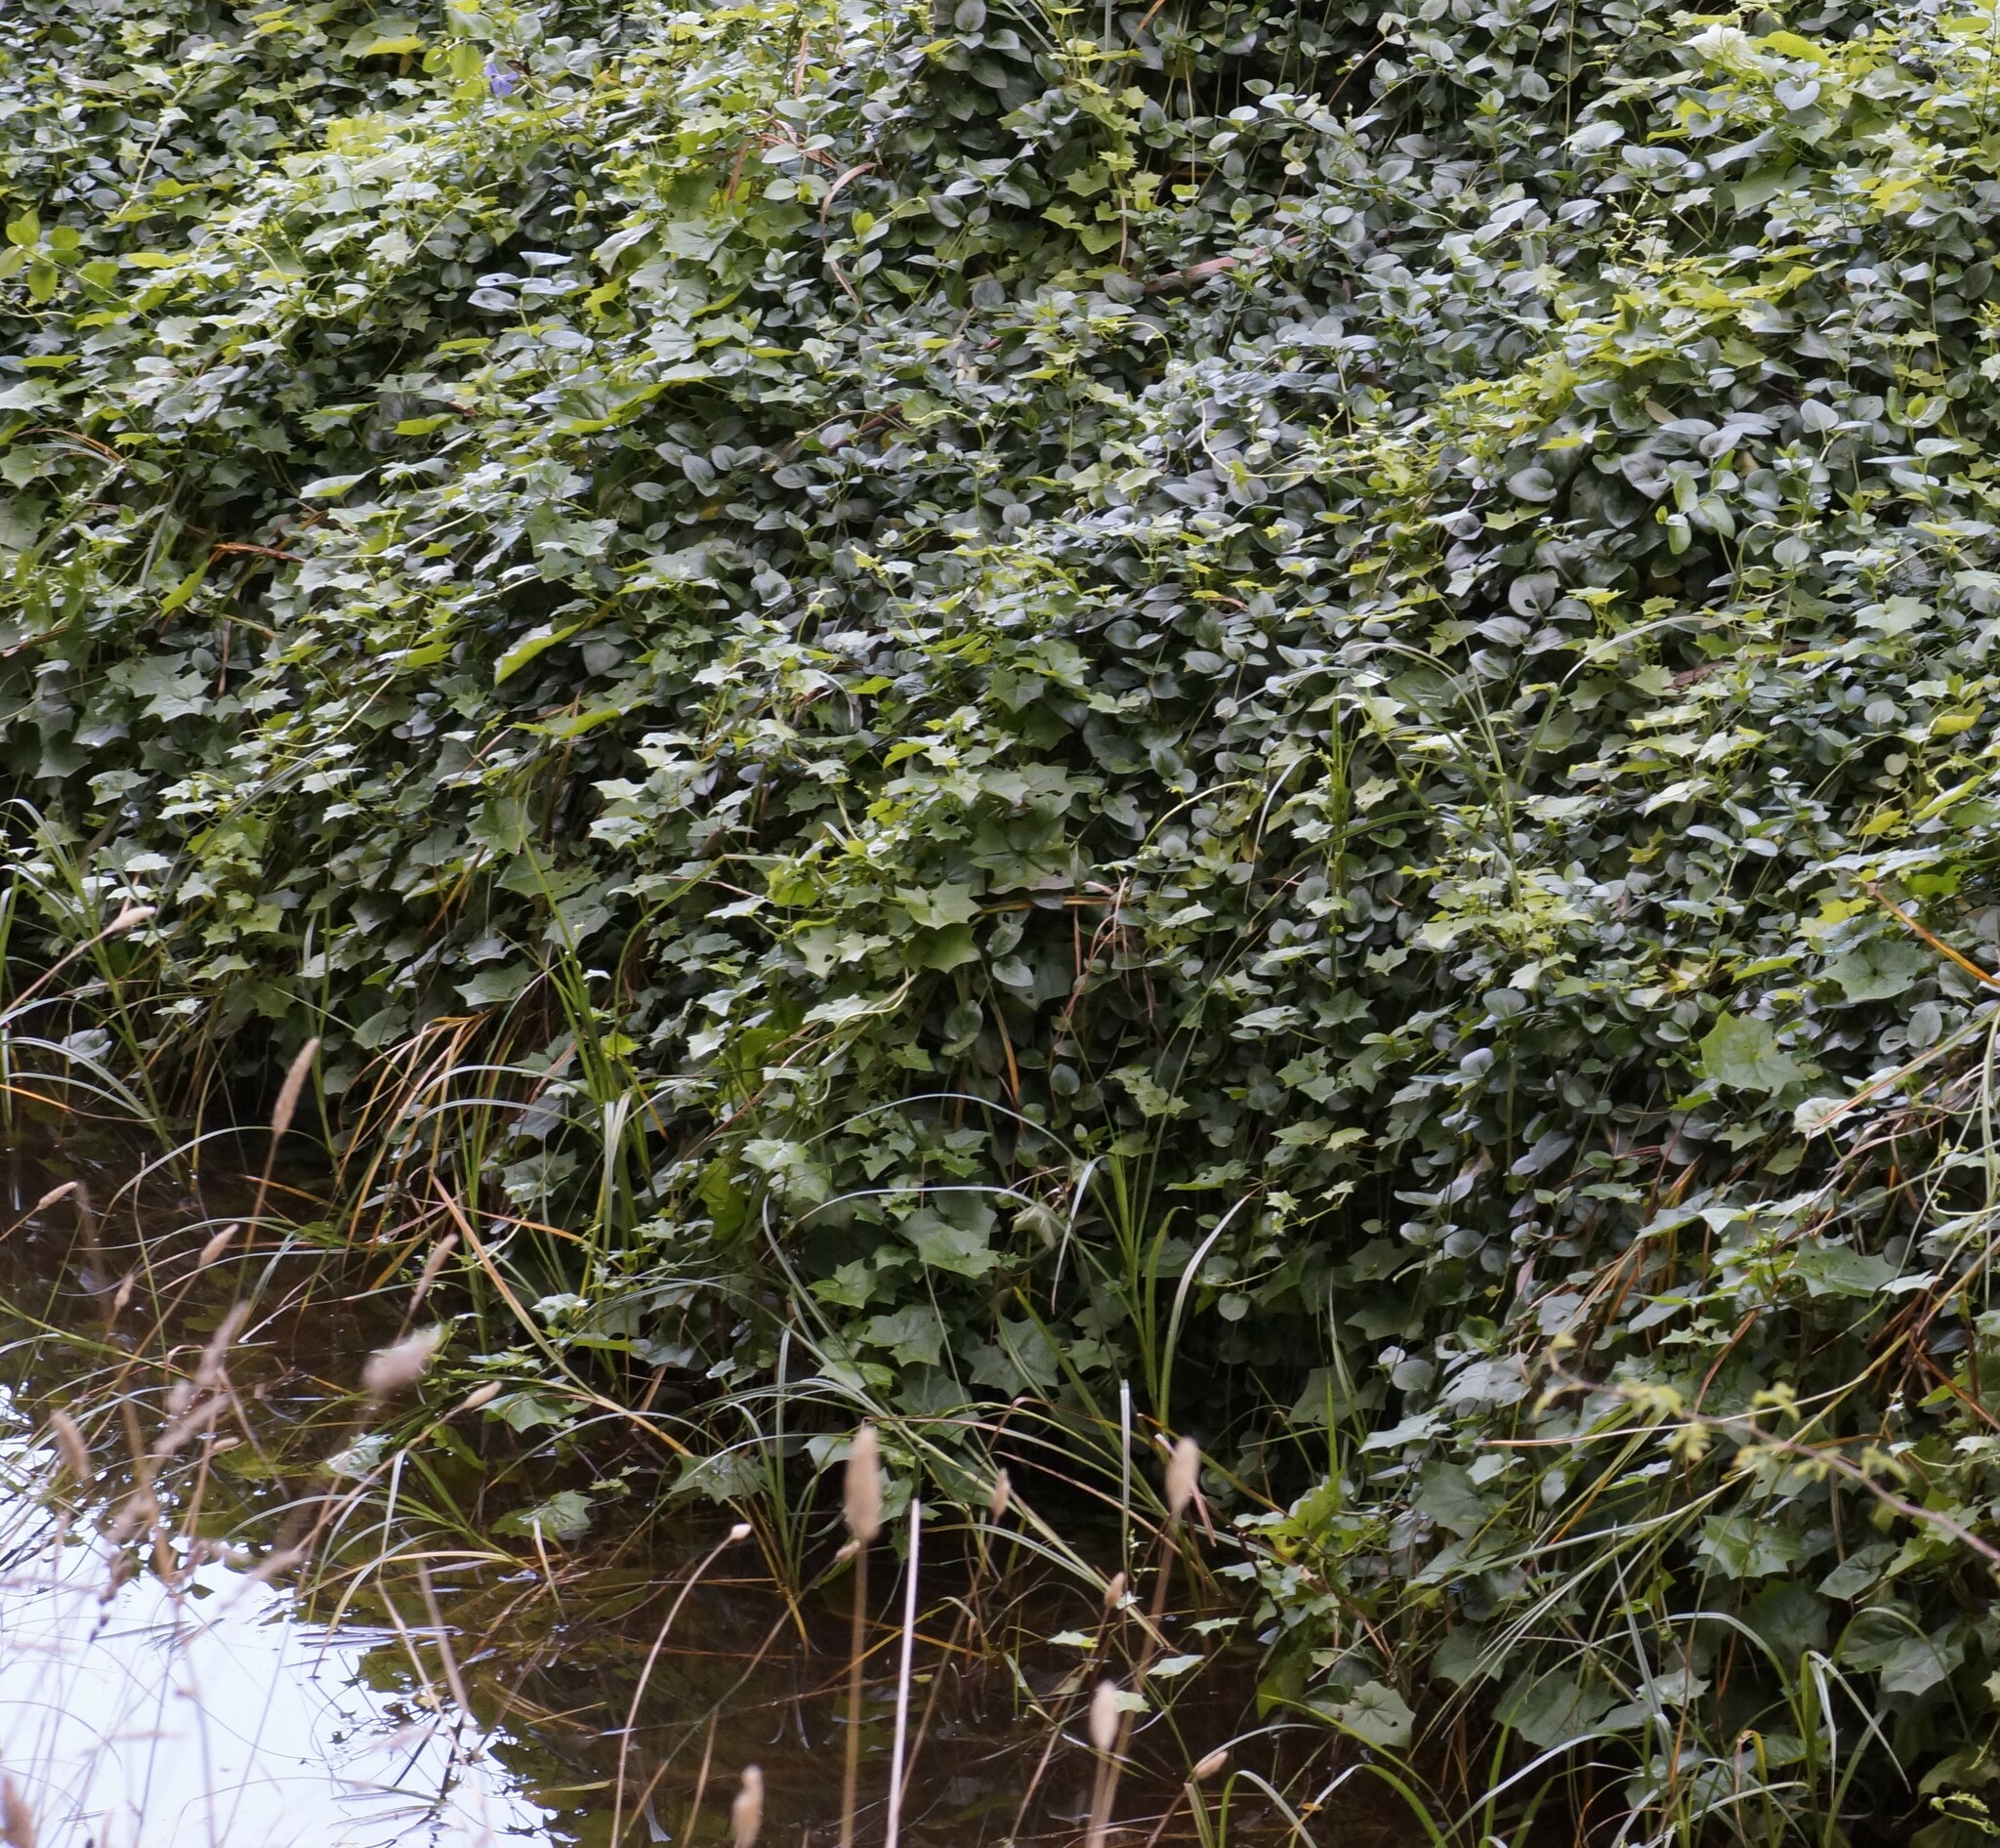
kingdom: Plantae
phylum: Tracheophyta
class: Magnoliopsida
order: Asterales
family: Asteraceae
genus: Delairea
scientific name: Delairea odorata
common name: Cape-ivy
